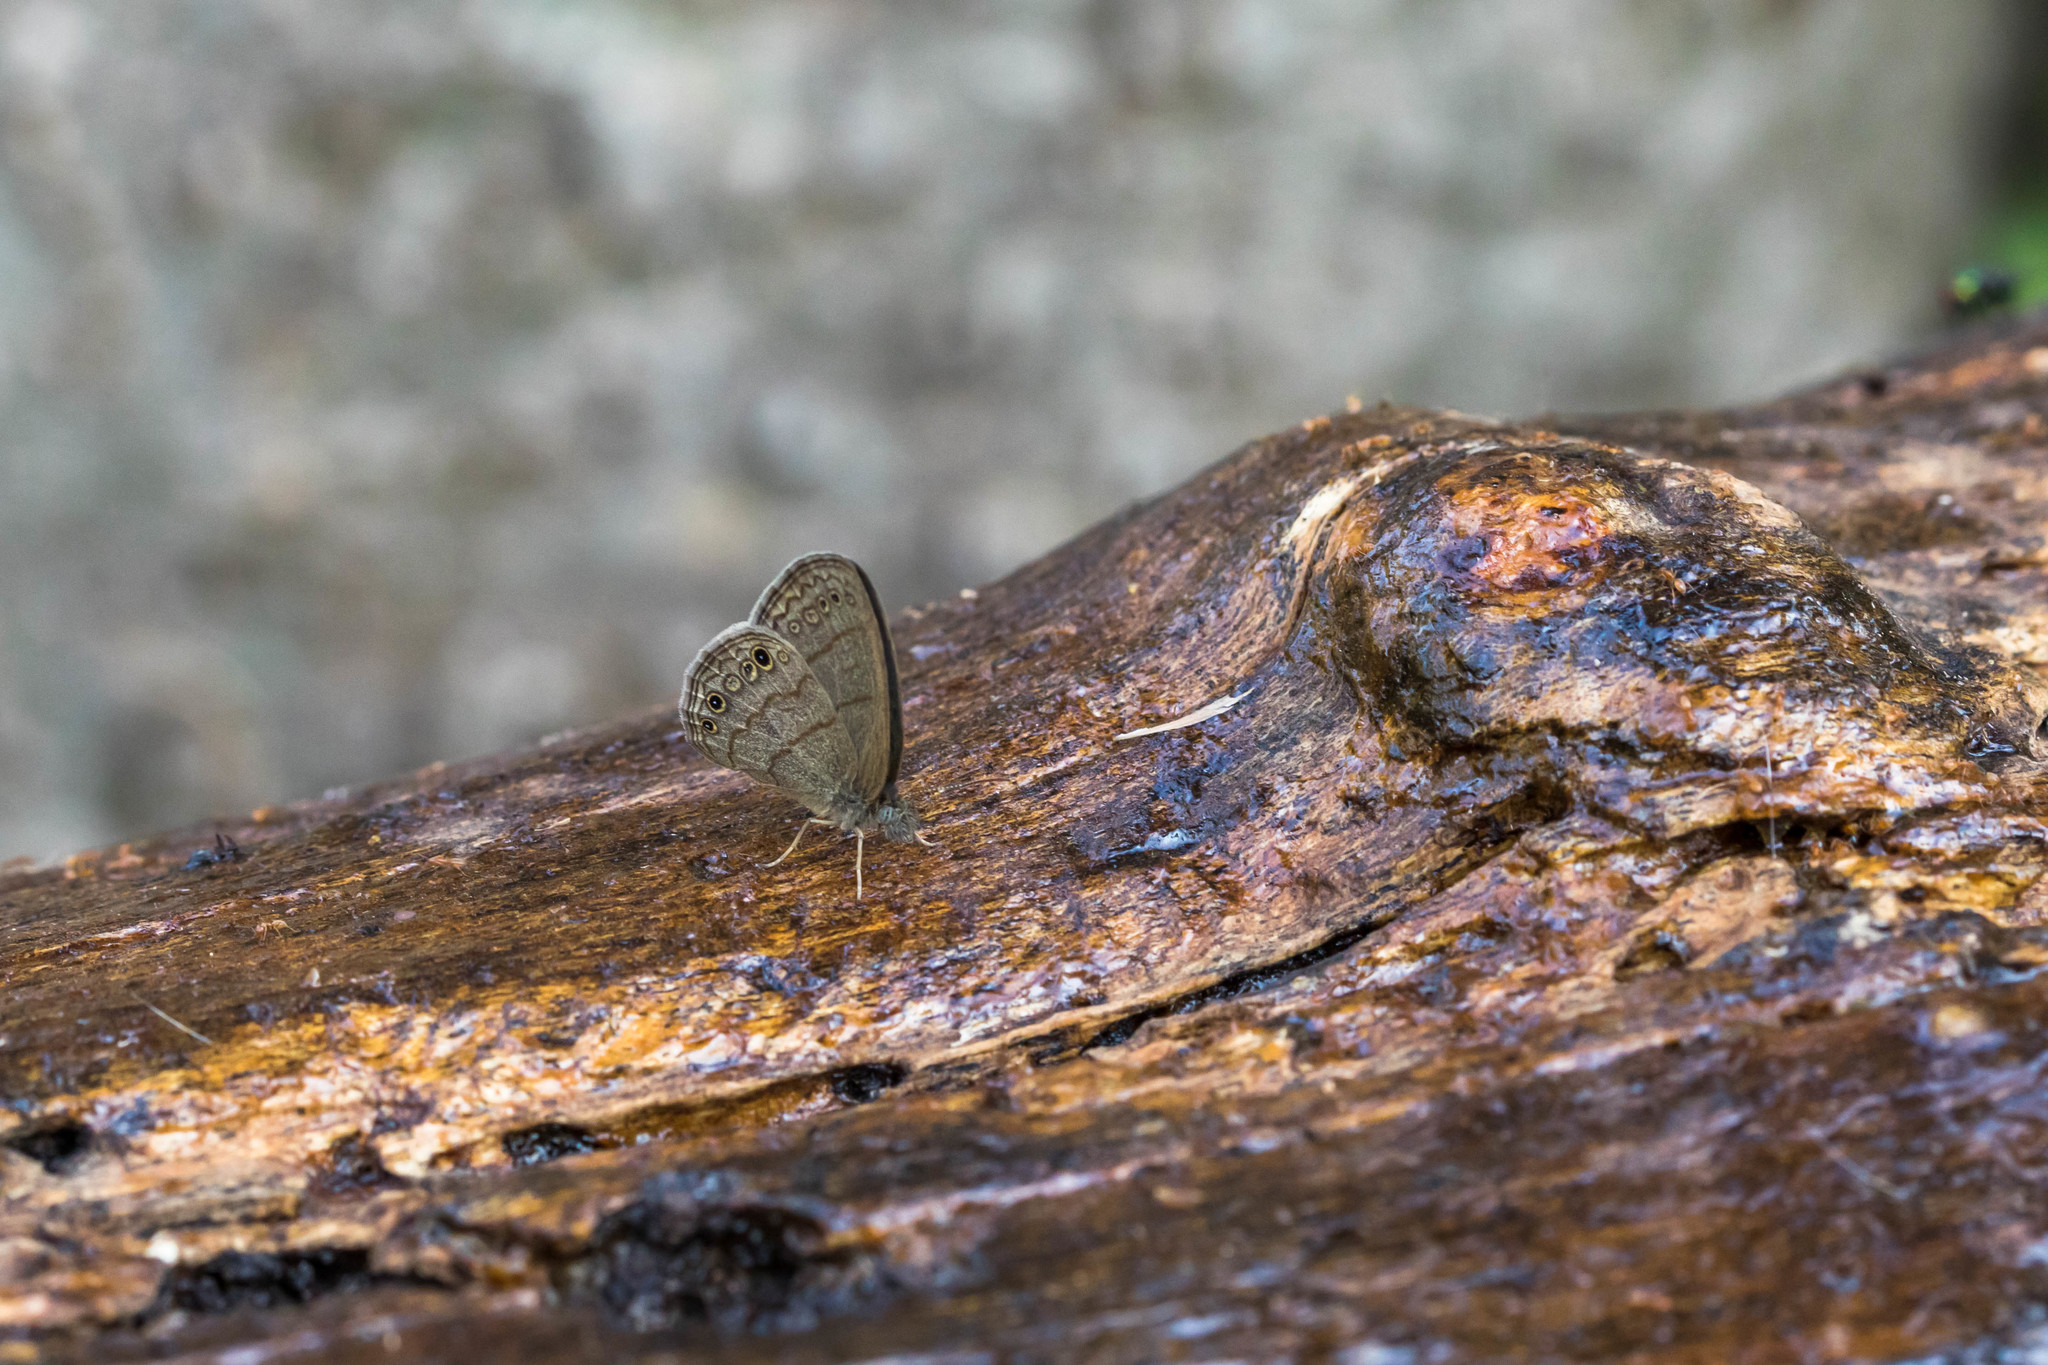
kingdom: Animalia
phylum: Arthropoda
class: Insecta
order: Lepidoptera
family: Nymphalidae
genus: Hermeuptychia
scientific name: Hermeuptychia hermybius
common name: South texas satyr
